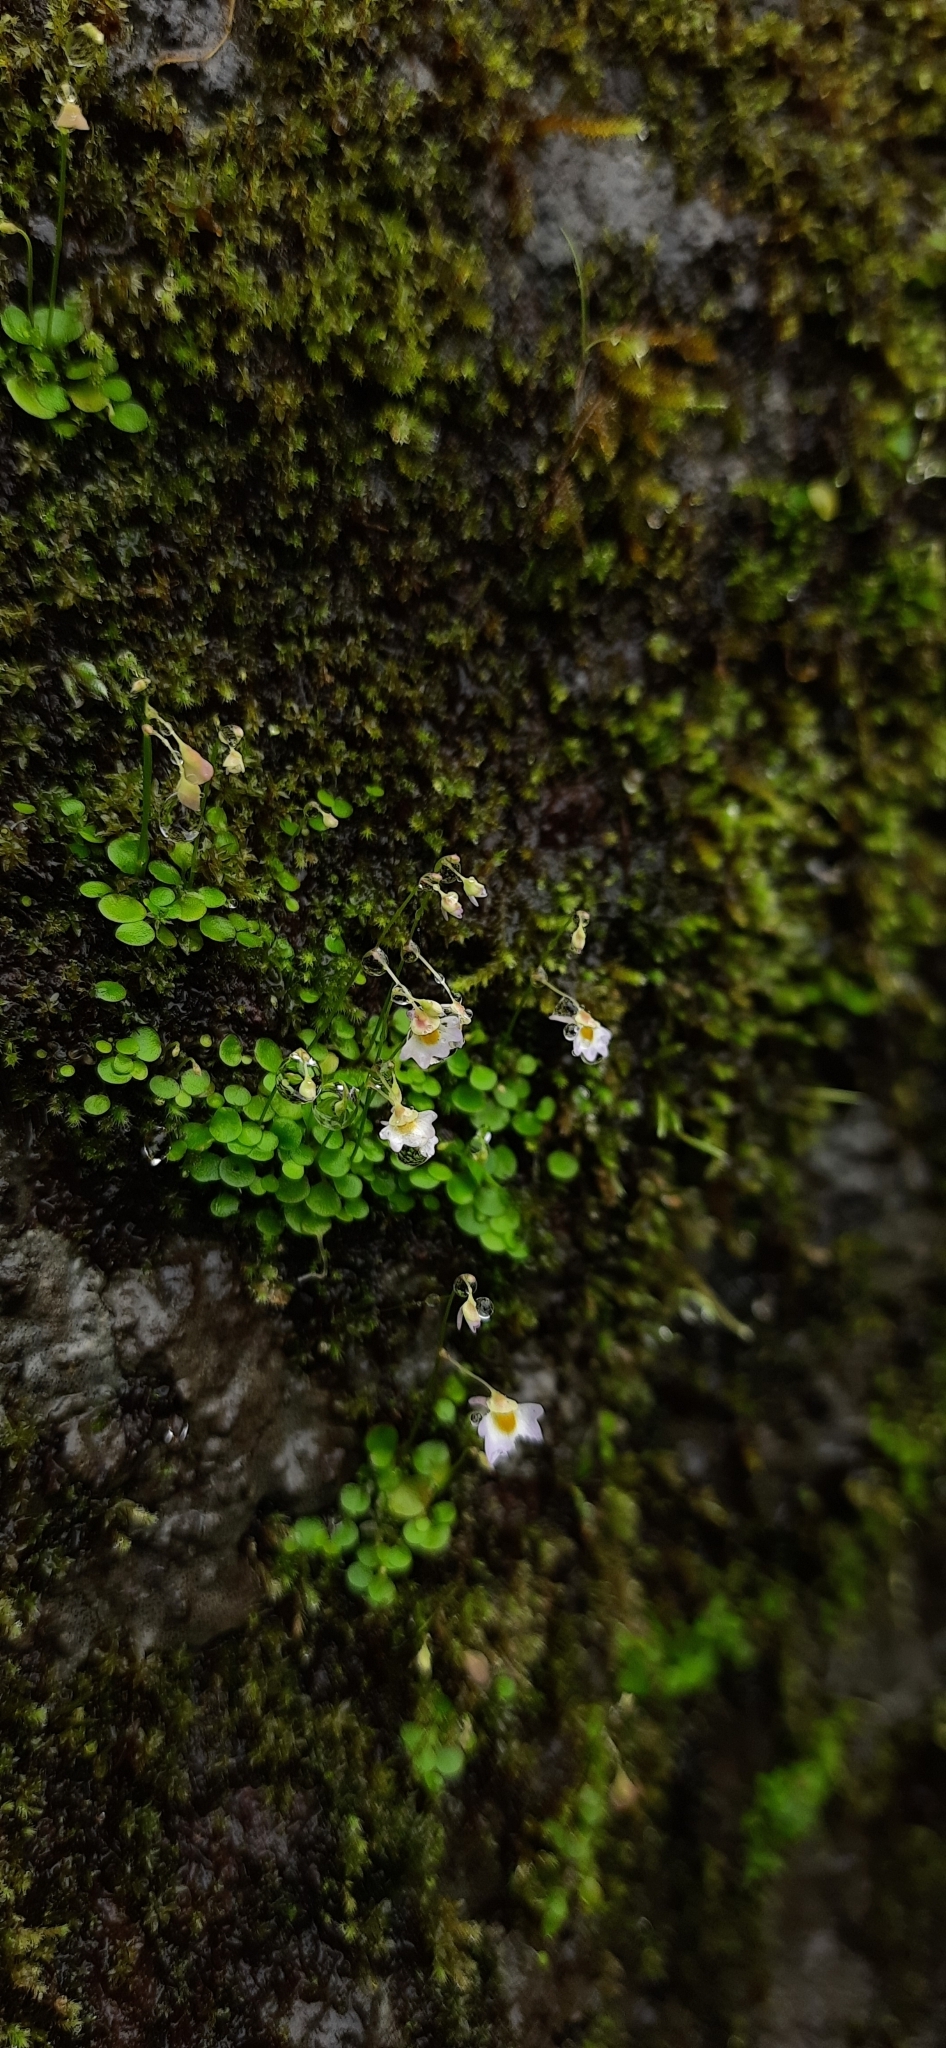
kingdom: Plantae
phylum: Tracheophyta
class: Magnoliopsida
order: Lamiales
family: Lentibulariaceae
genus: Utricularia
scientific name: Utricularia striatula
